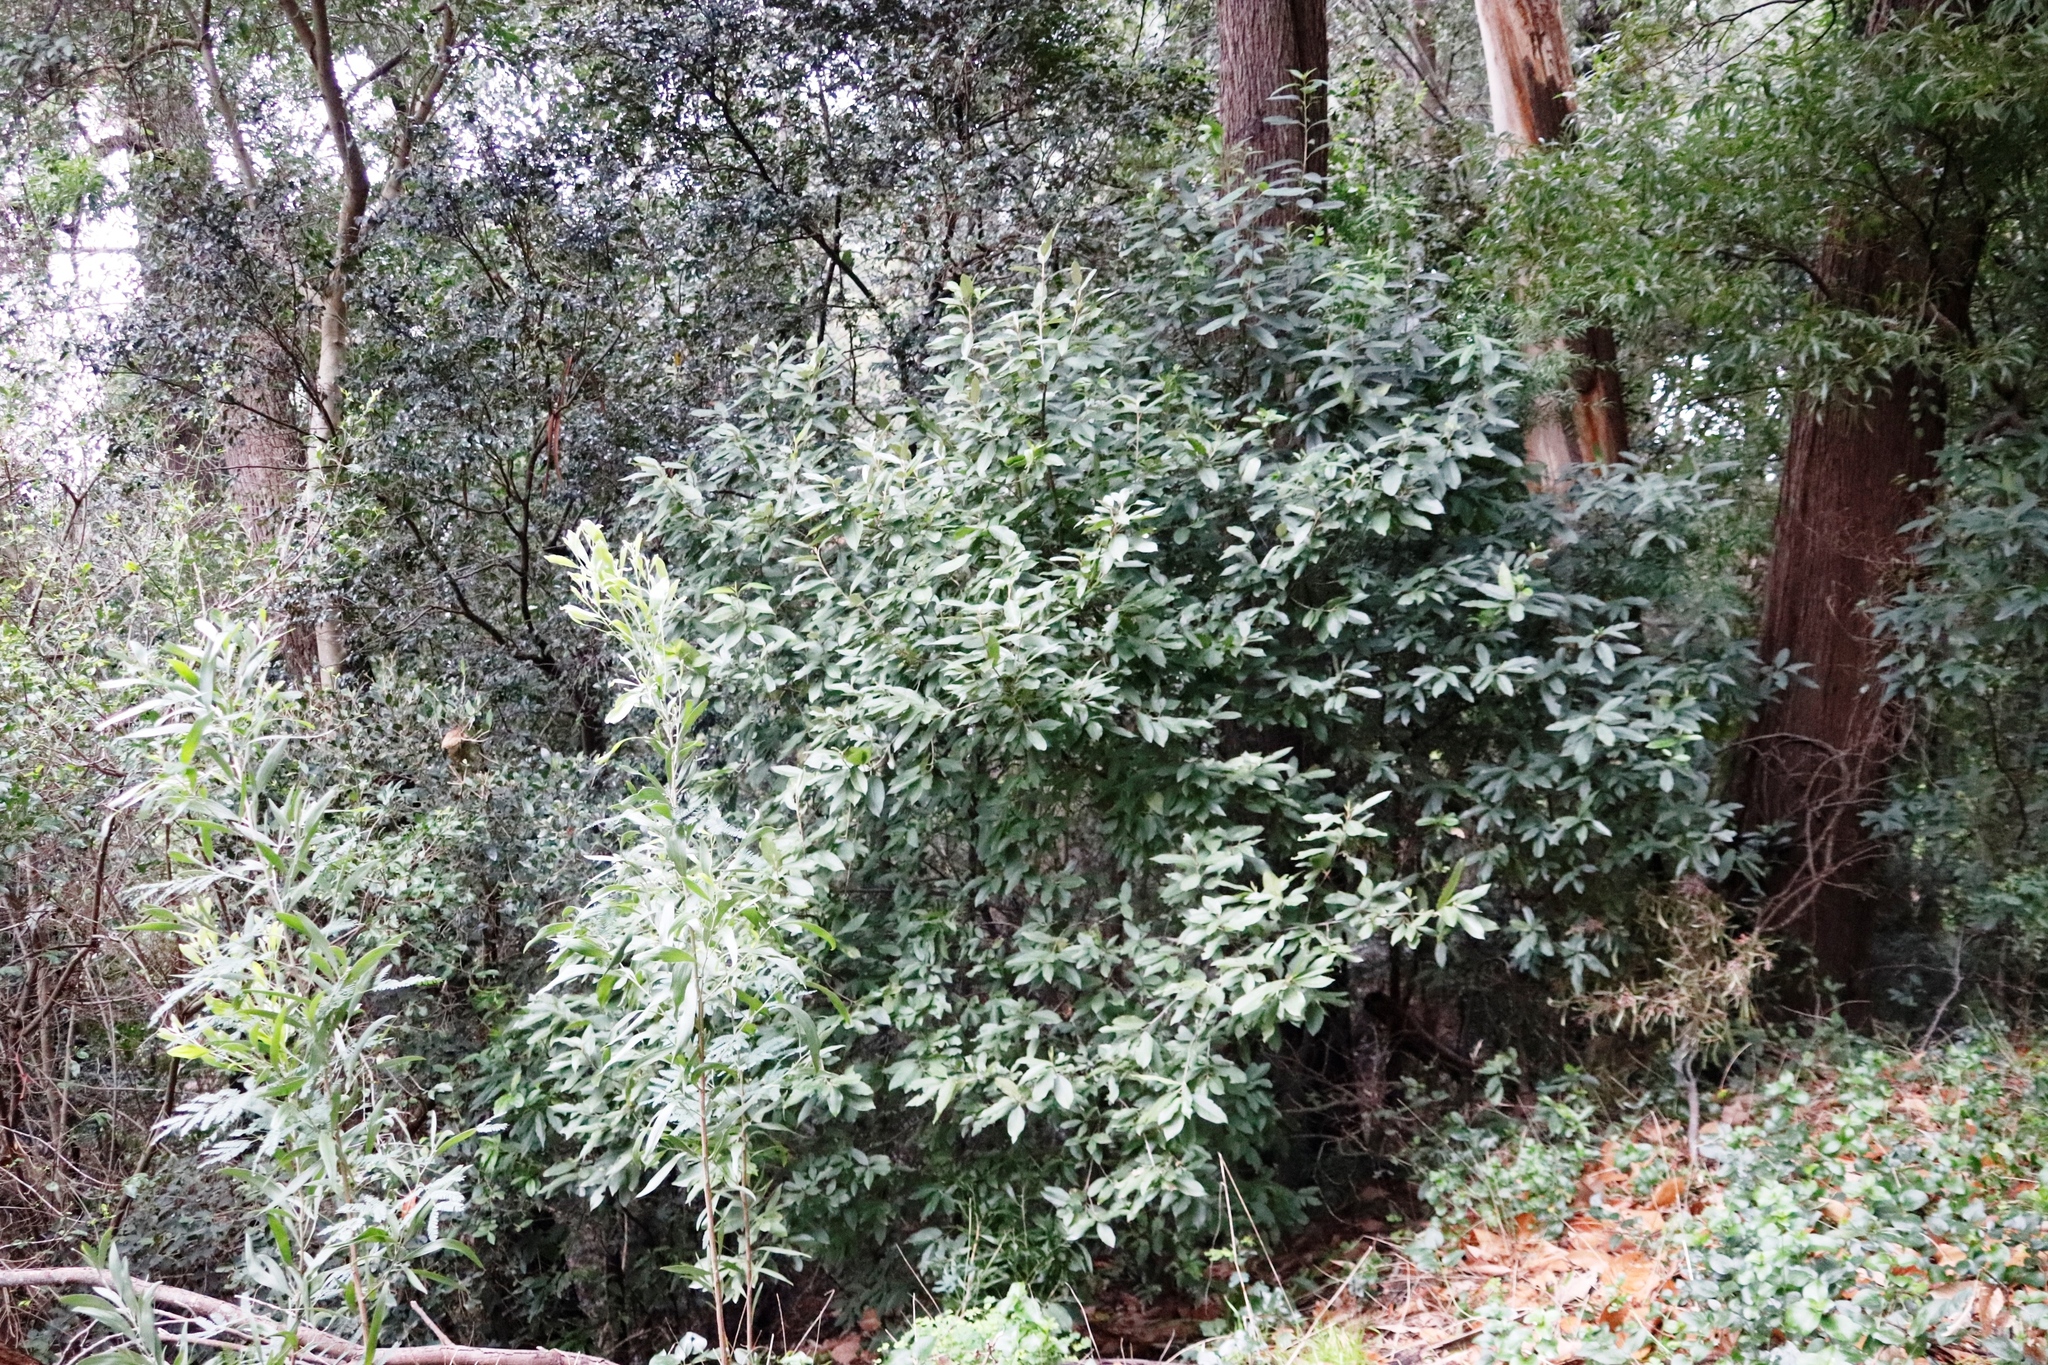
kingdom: Plantae
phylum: Tracheophyta
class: Magnoliopsida
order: Malpighiales
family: Achariaceae
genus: Kiggelaria
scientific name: Kiggelaria africana
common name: Wild peach
